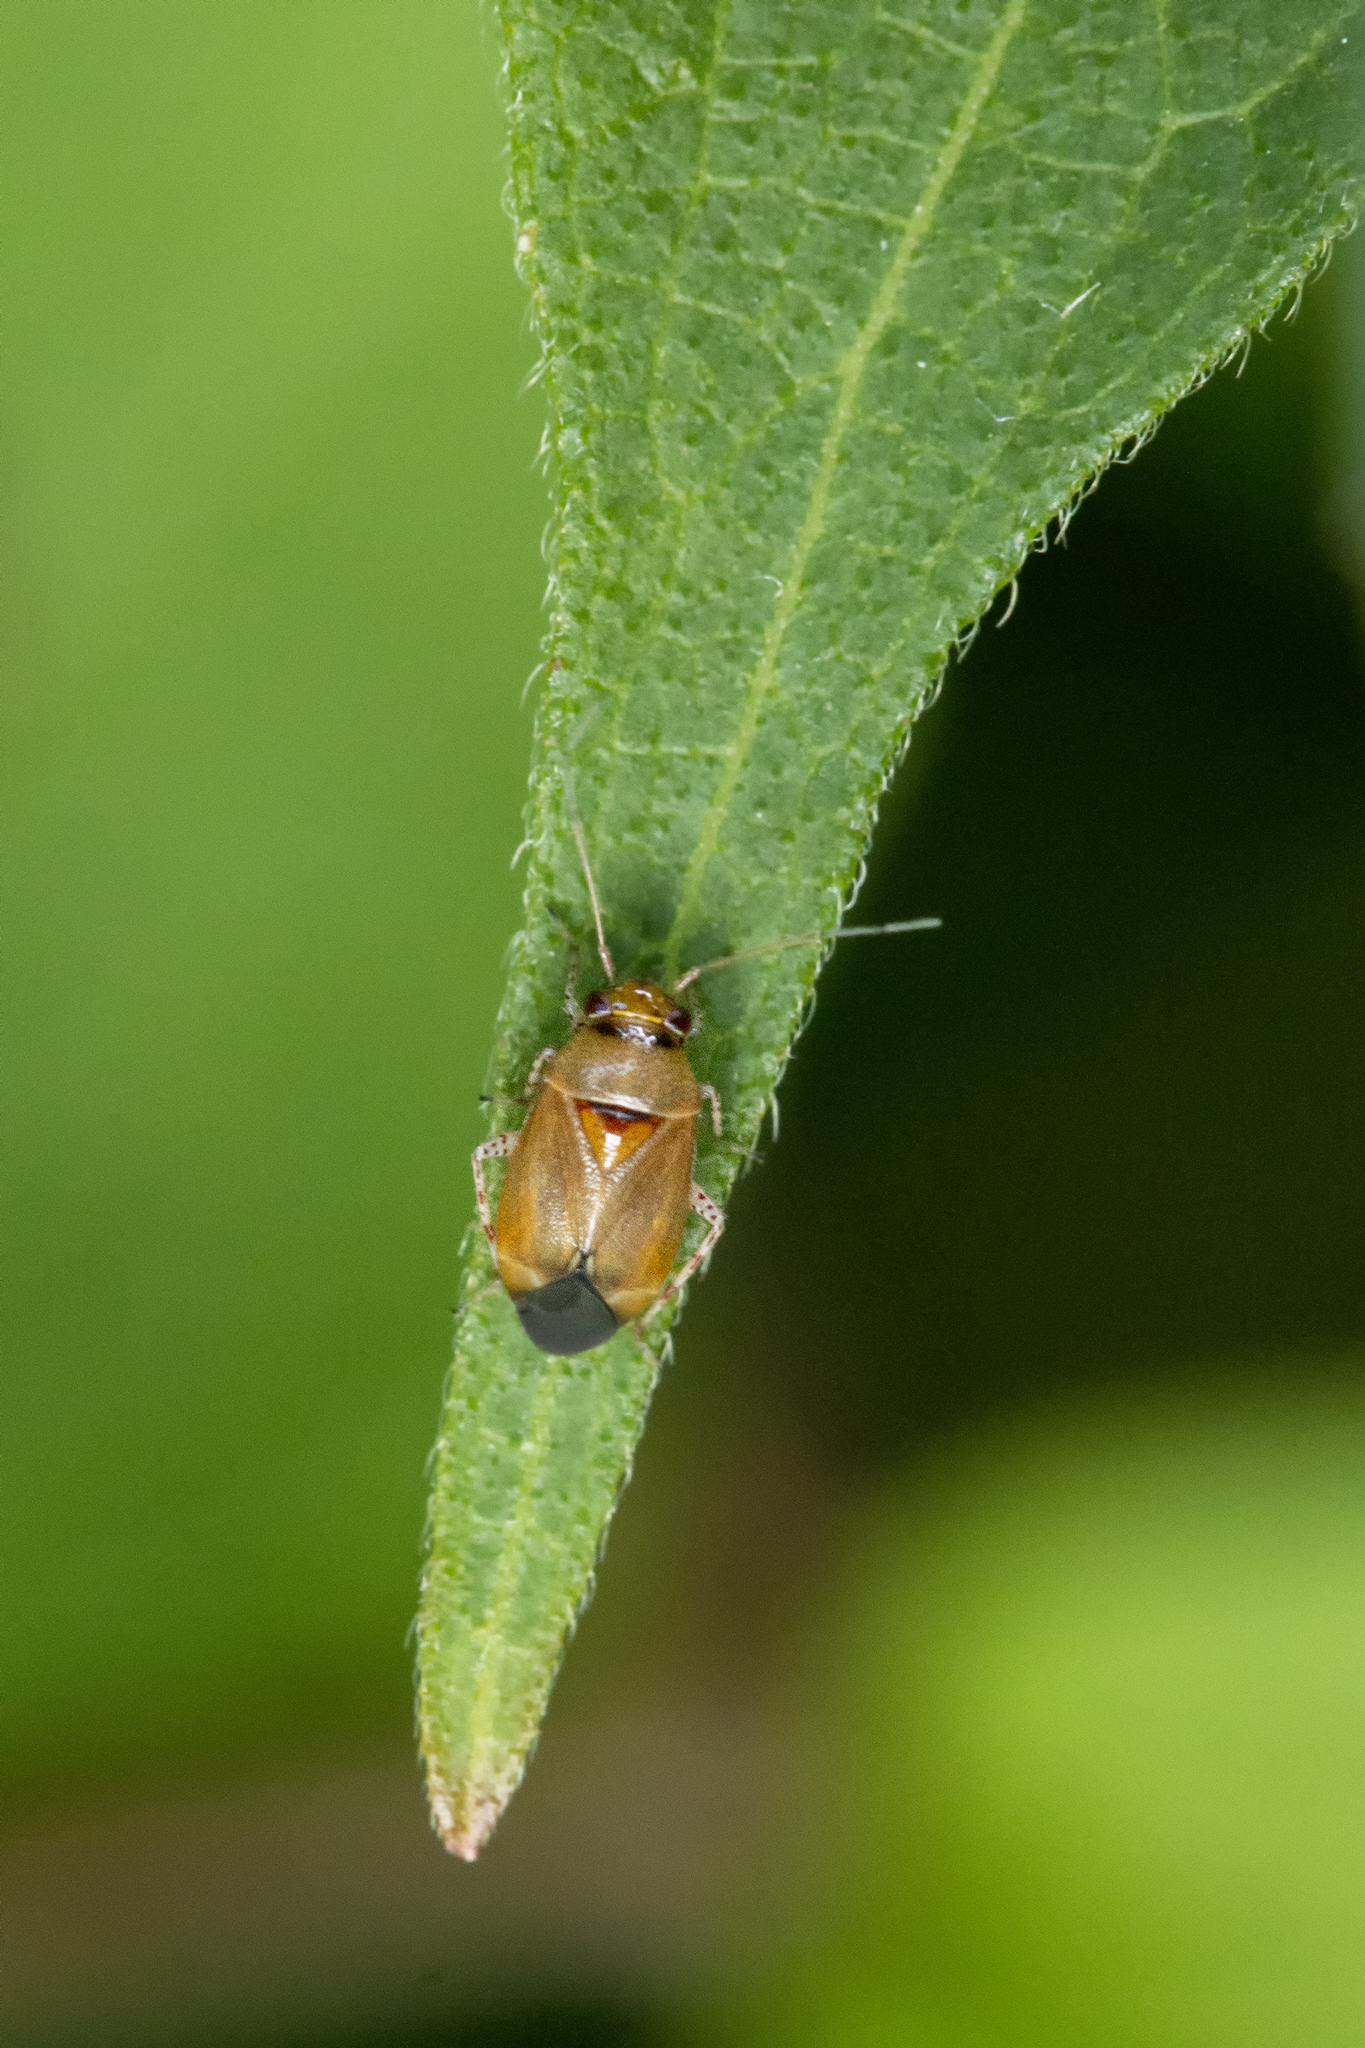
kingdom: Animalia
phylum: Arthropoda
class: Insecta
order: Hemiptera
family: Miridae
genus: Camptozygum
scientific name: Camptozygum aequale
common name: Plant bug
